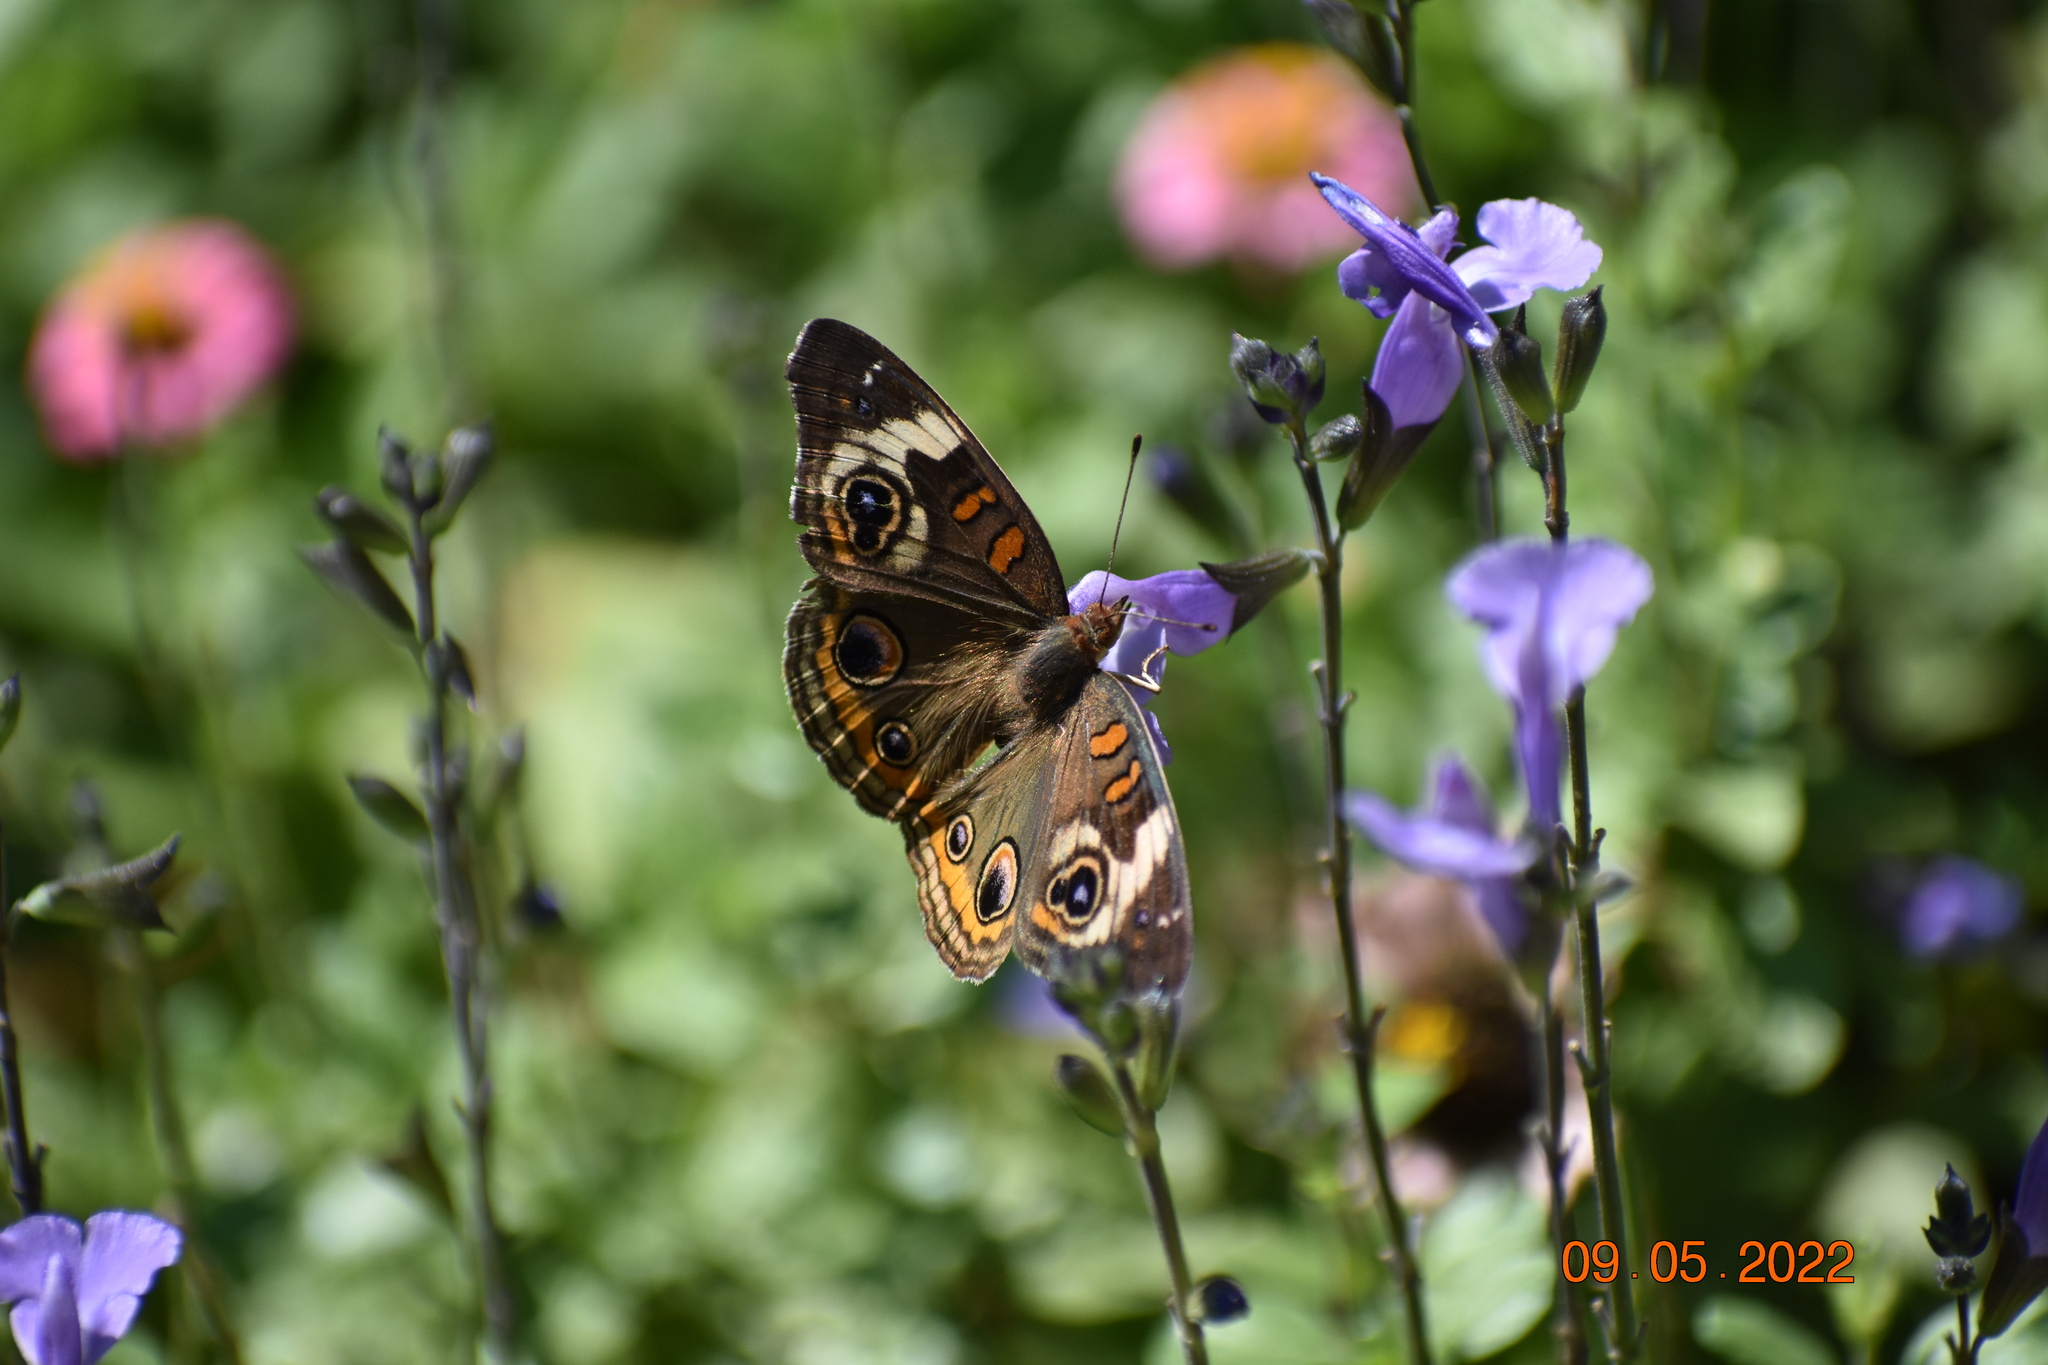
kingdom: Animalia
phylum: Arthropoda
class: Insecta
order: Lepidoptera
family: Nymphalidae
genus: Junonia
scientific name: Junonia coenia
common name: Common buckeye
